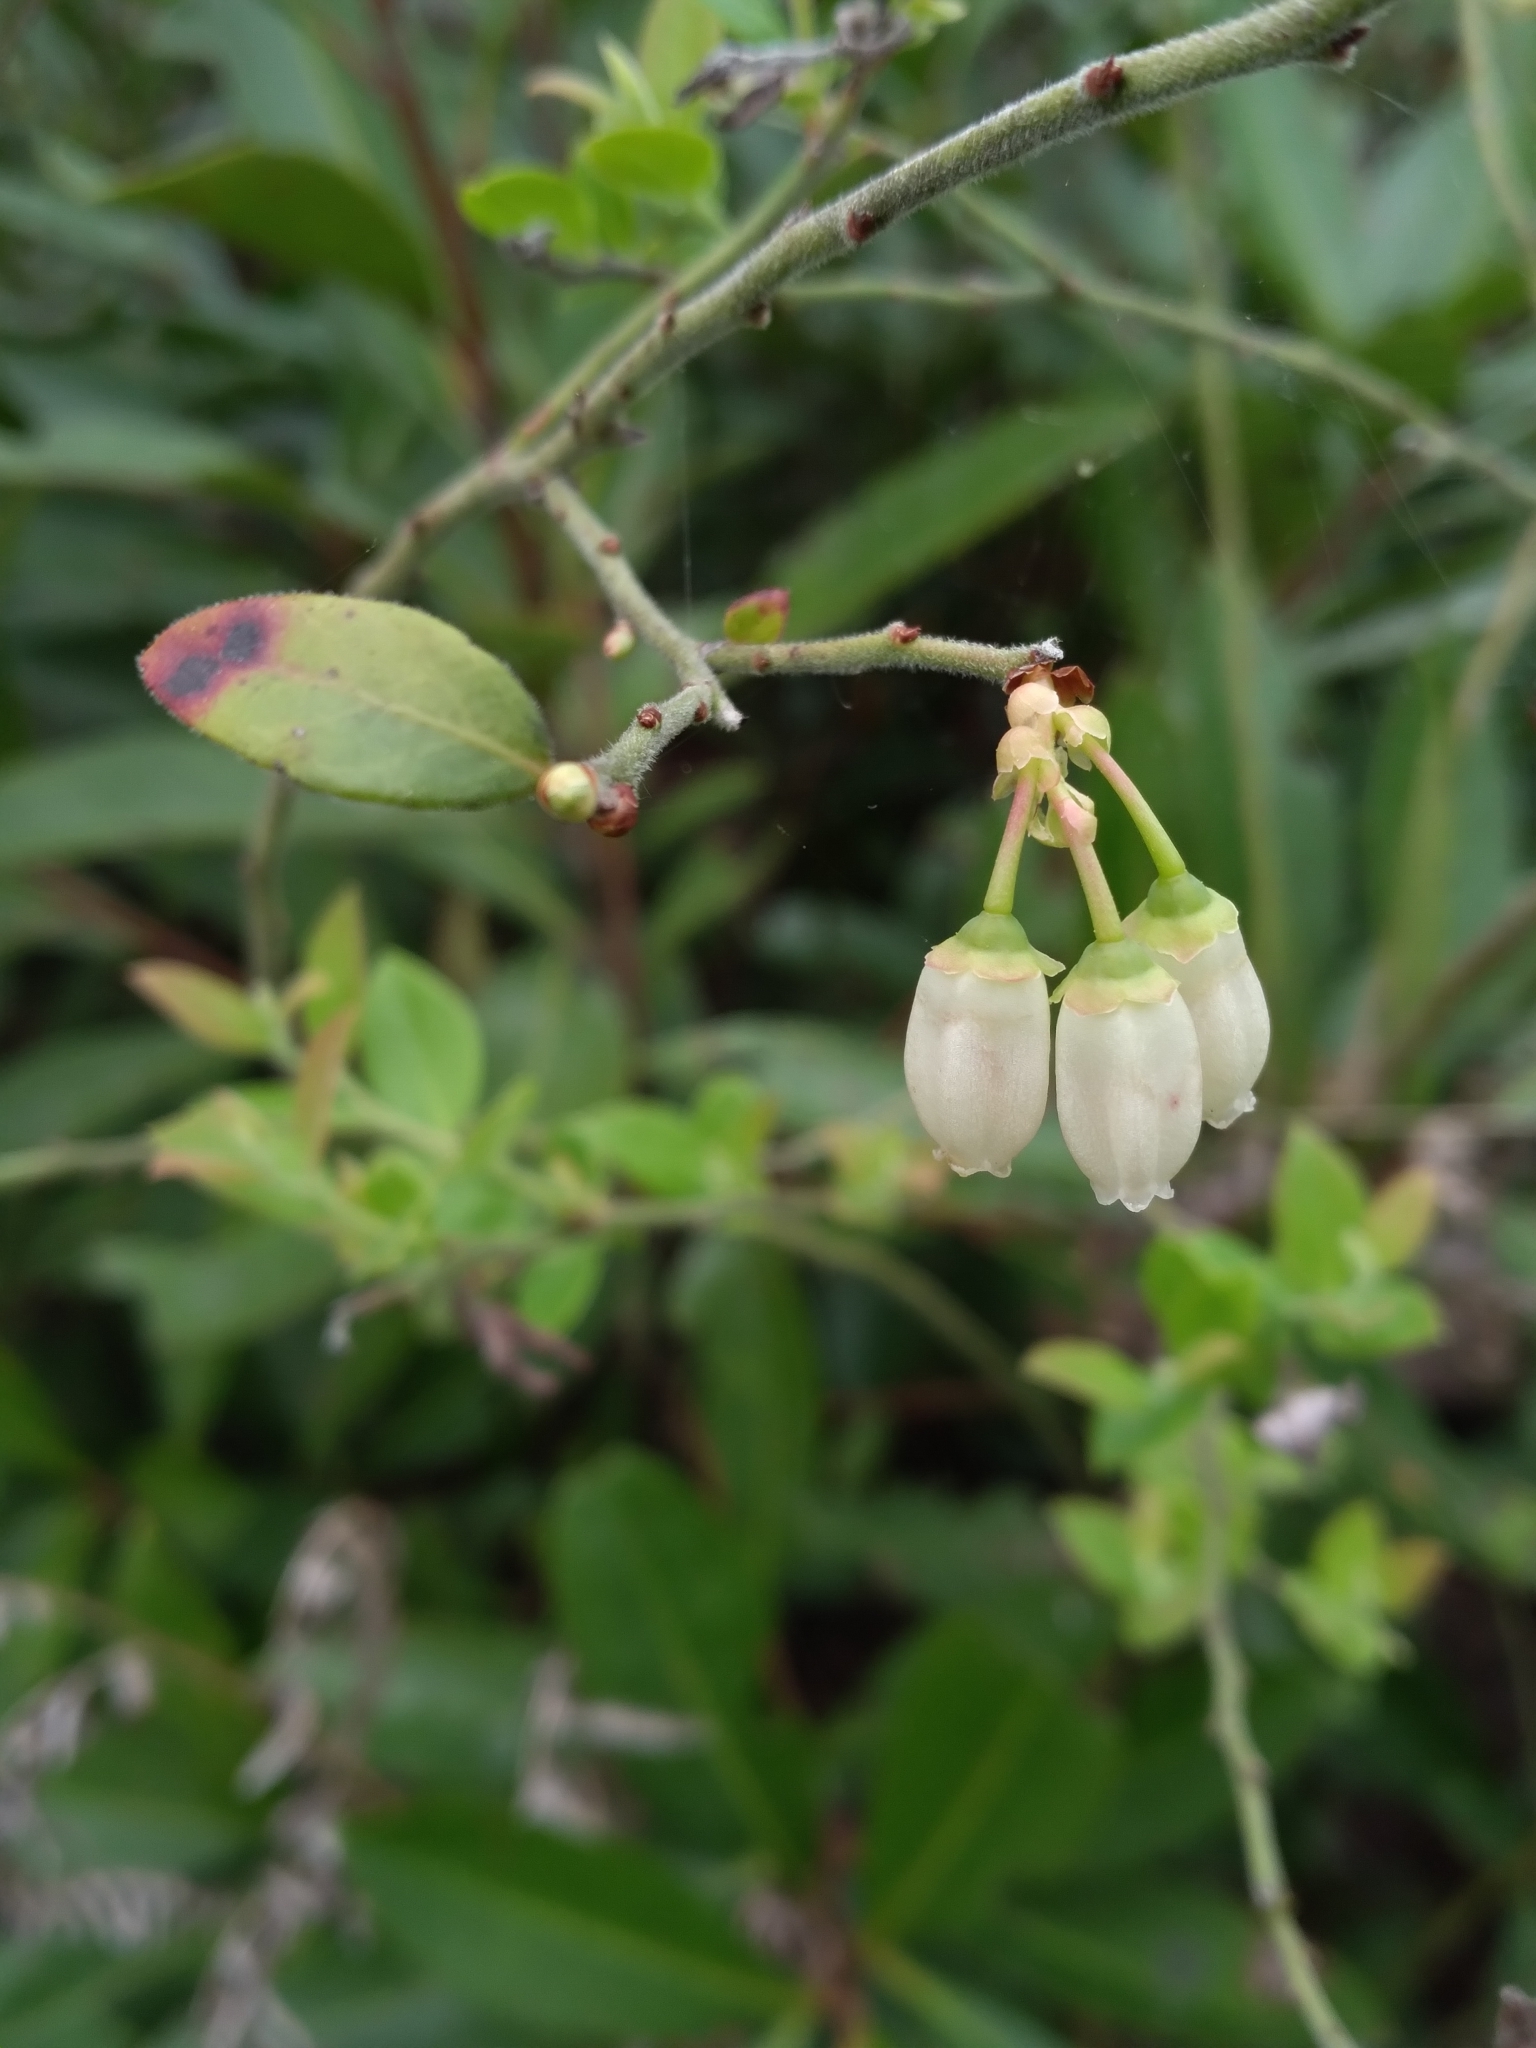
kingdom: Plantae
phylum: Tracheophyta
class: Magnoliopsida
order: Ericales
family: Ericaceae
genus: Vaccinium
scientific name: Vaccinium corymbosum
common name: Blueberry
